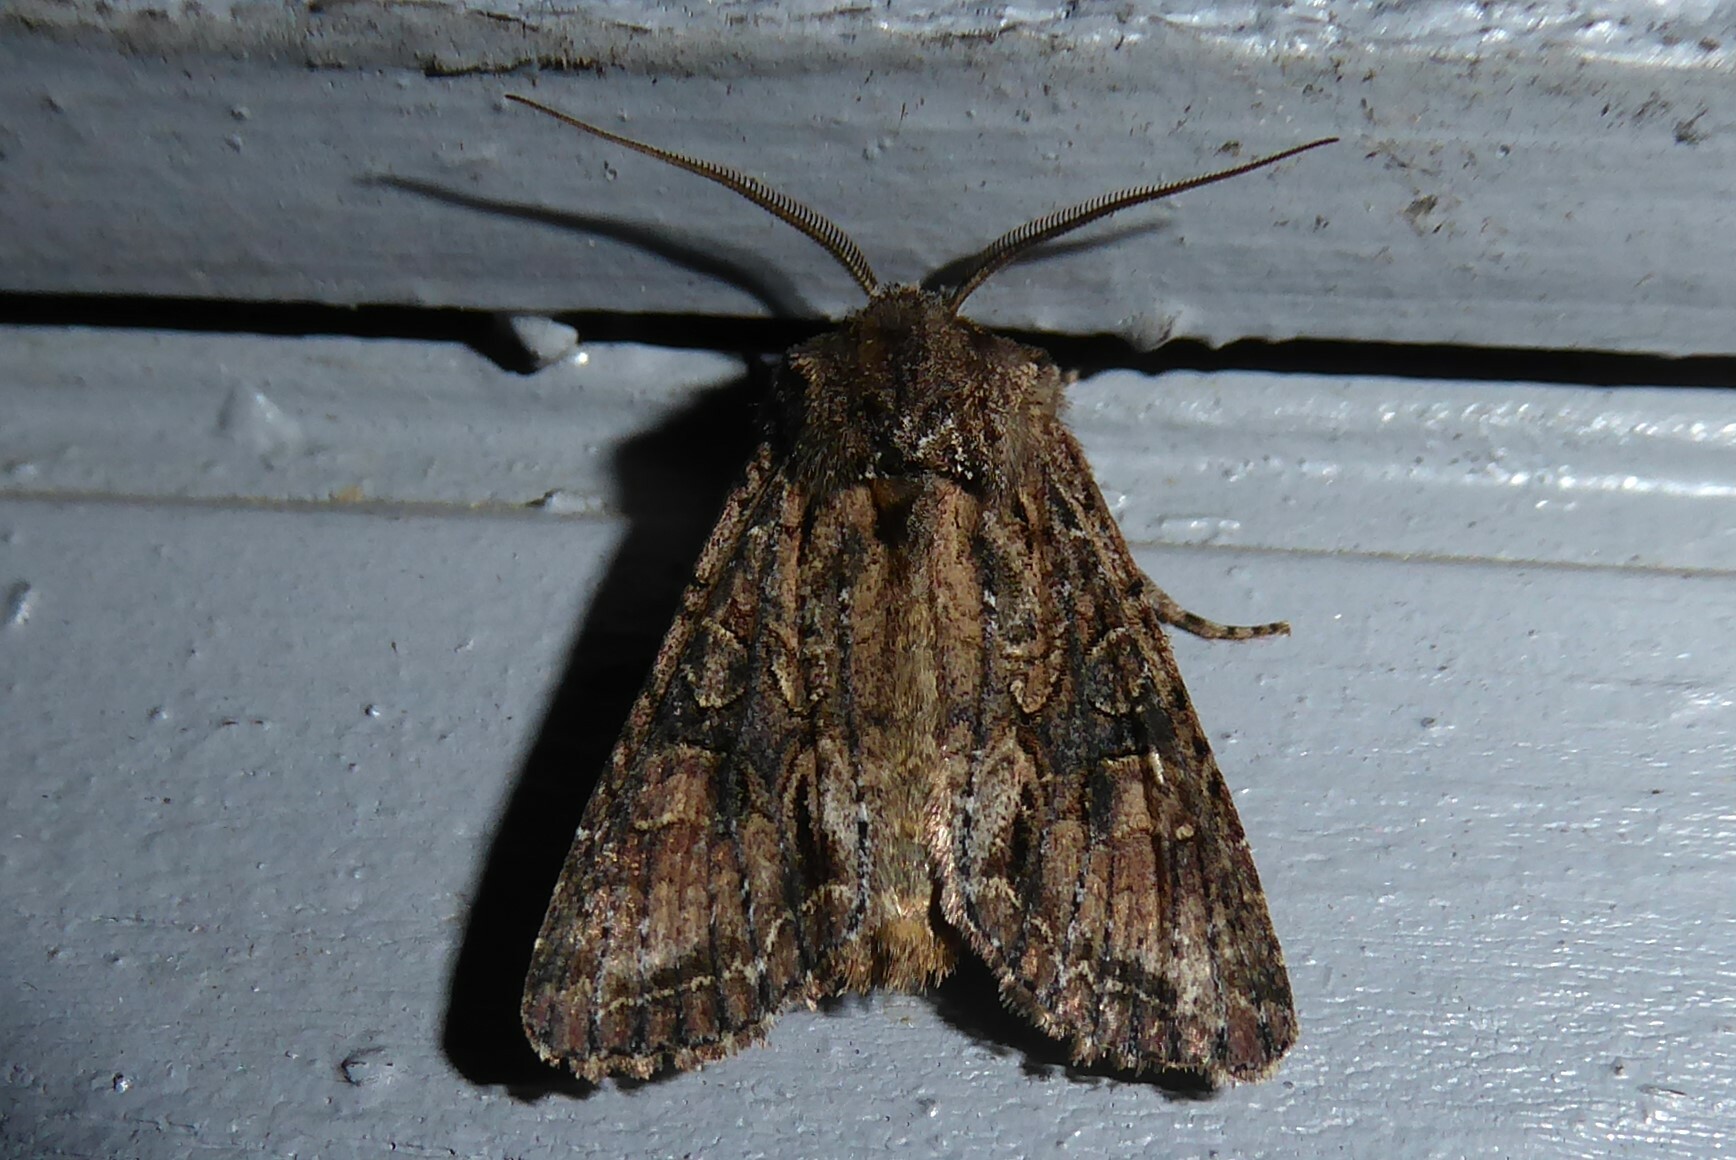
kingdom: Animalia
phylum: Arthropoda
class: Insecta
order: Lepidoptera
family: Noctuidae
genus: Ichneutica
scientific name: Ichneutica mutans
